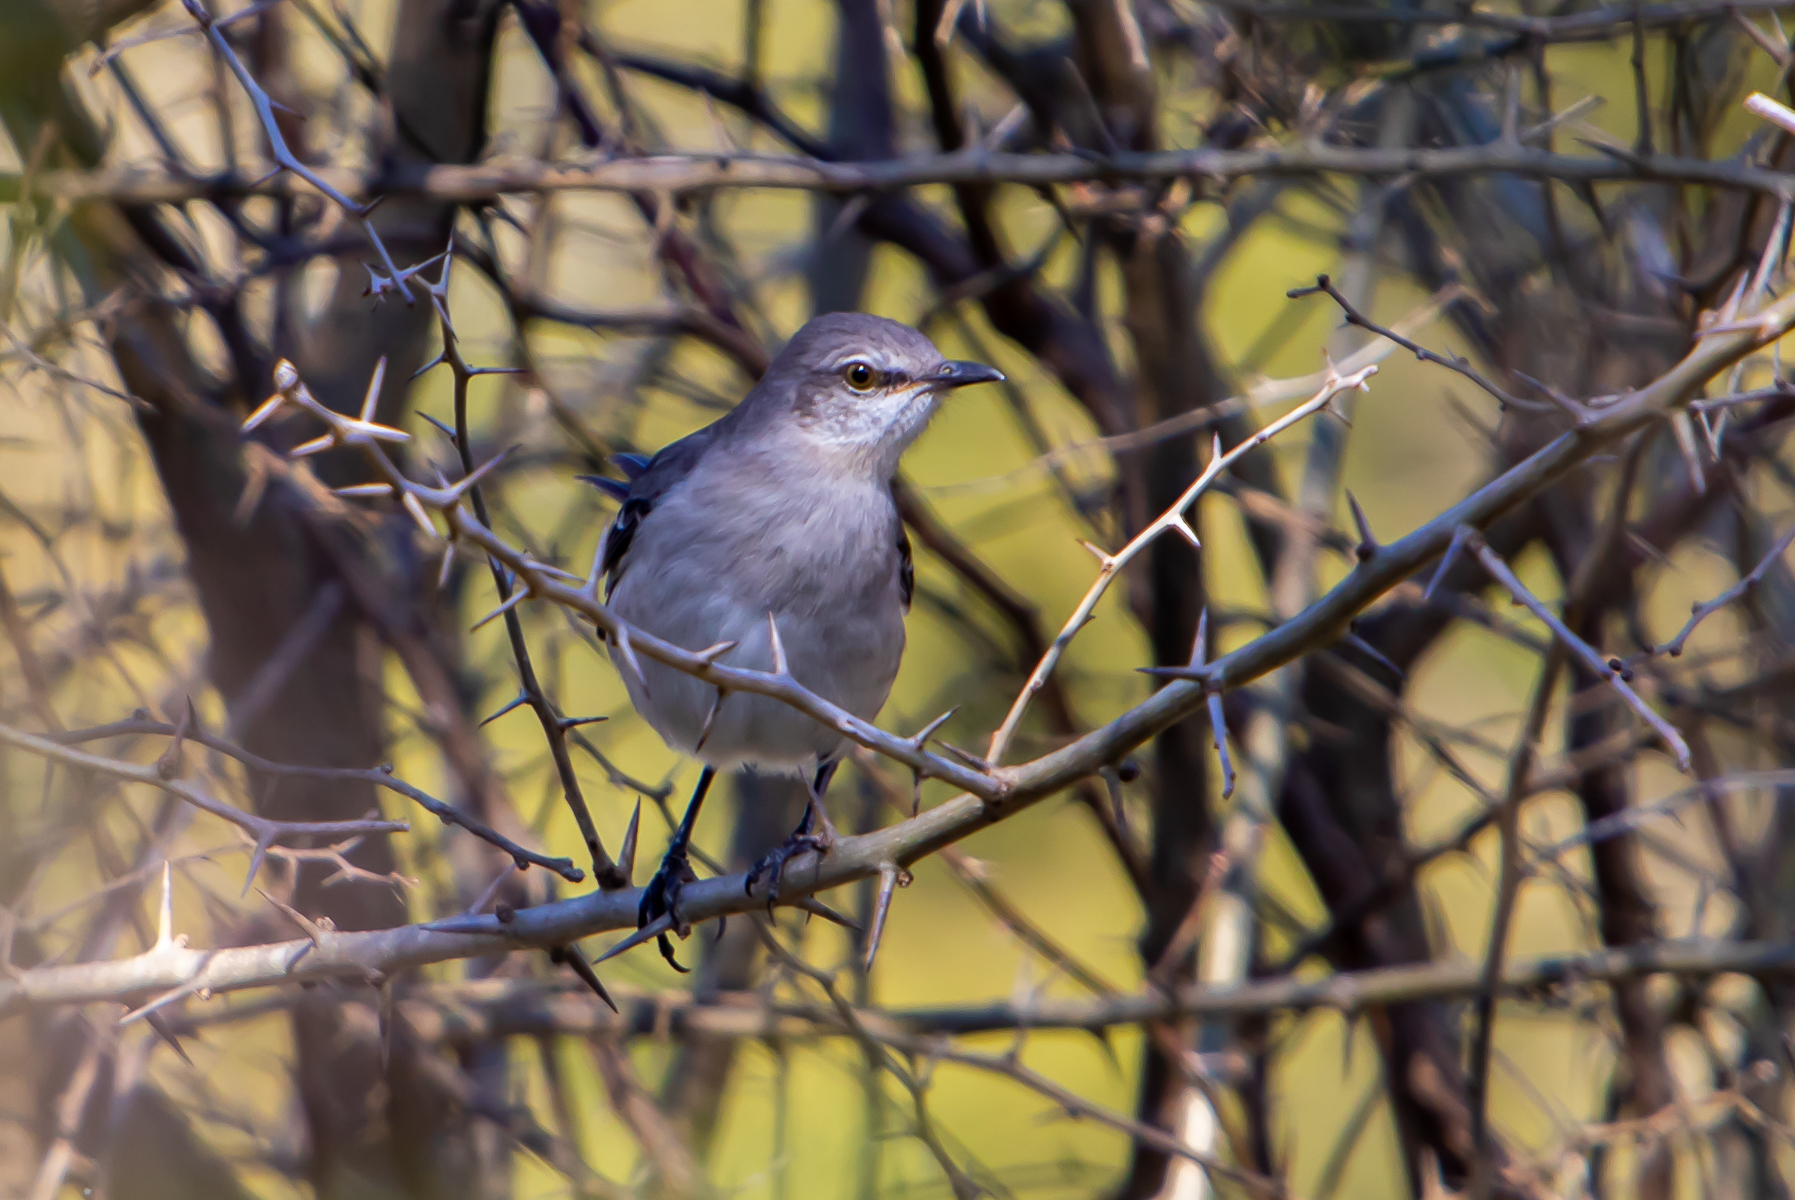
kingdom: Animalia
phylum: Chordata
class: Aves
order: Passeriformes
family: Mimidae
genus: Mimus
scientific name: Mimus polyglottos
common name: Northern mockingbird
